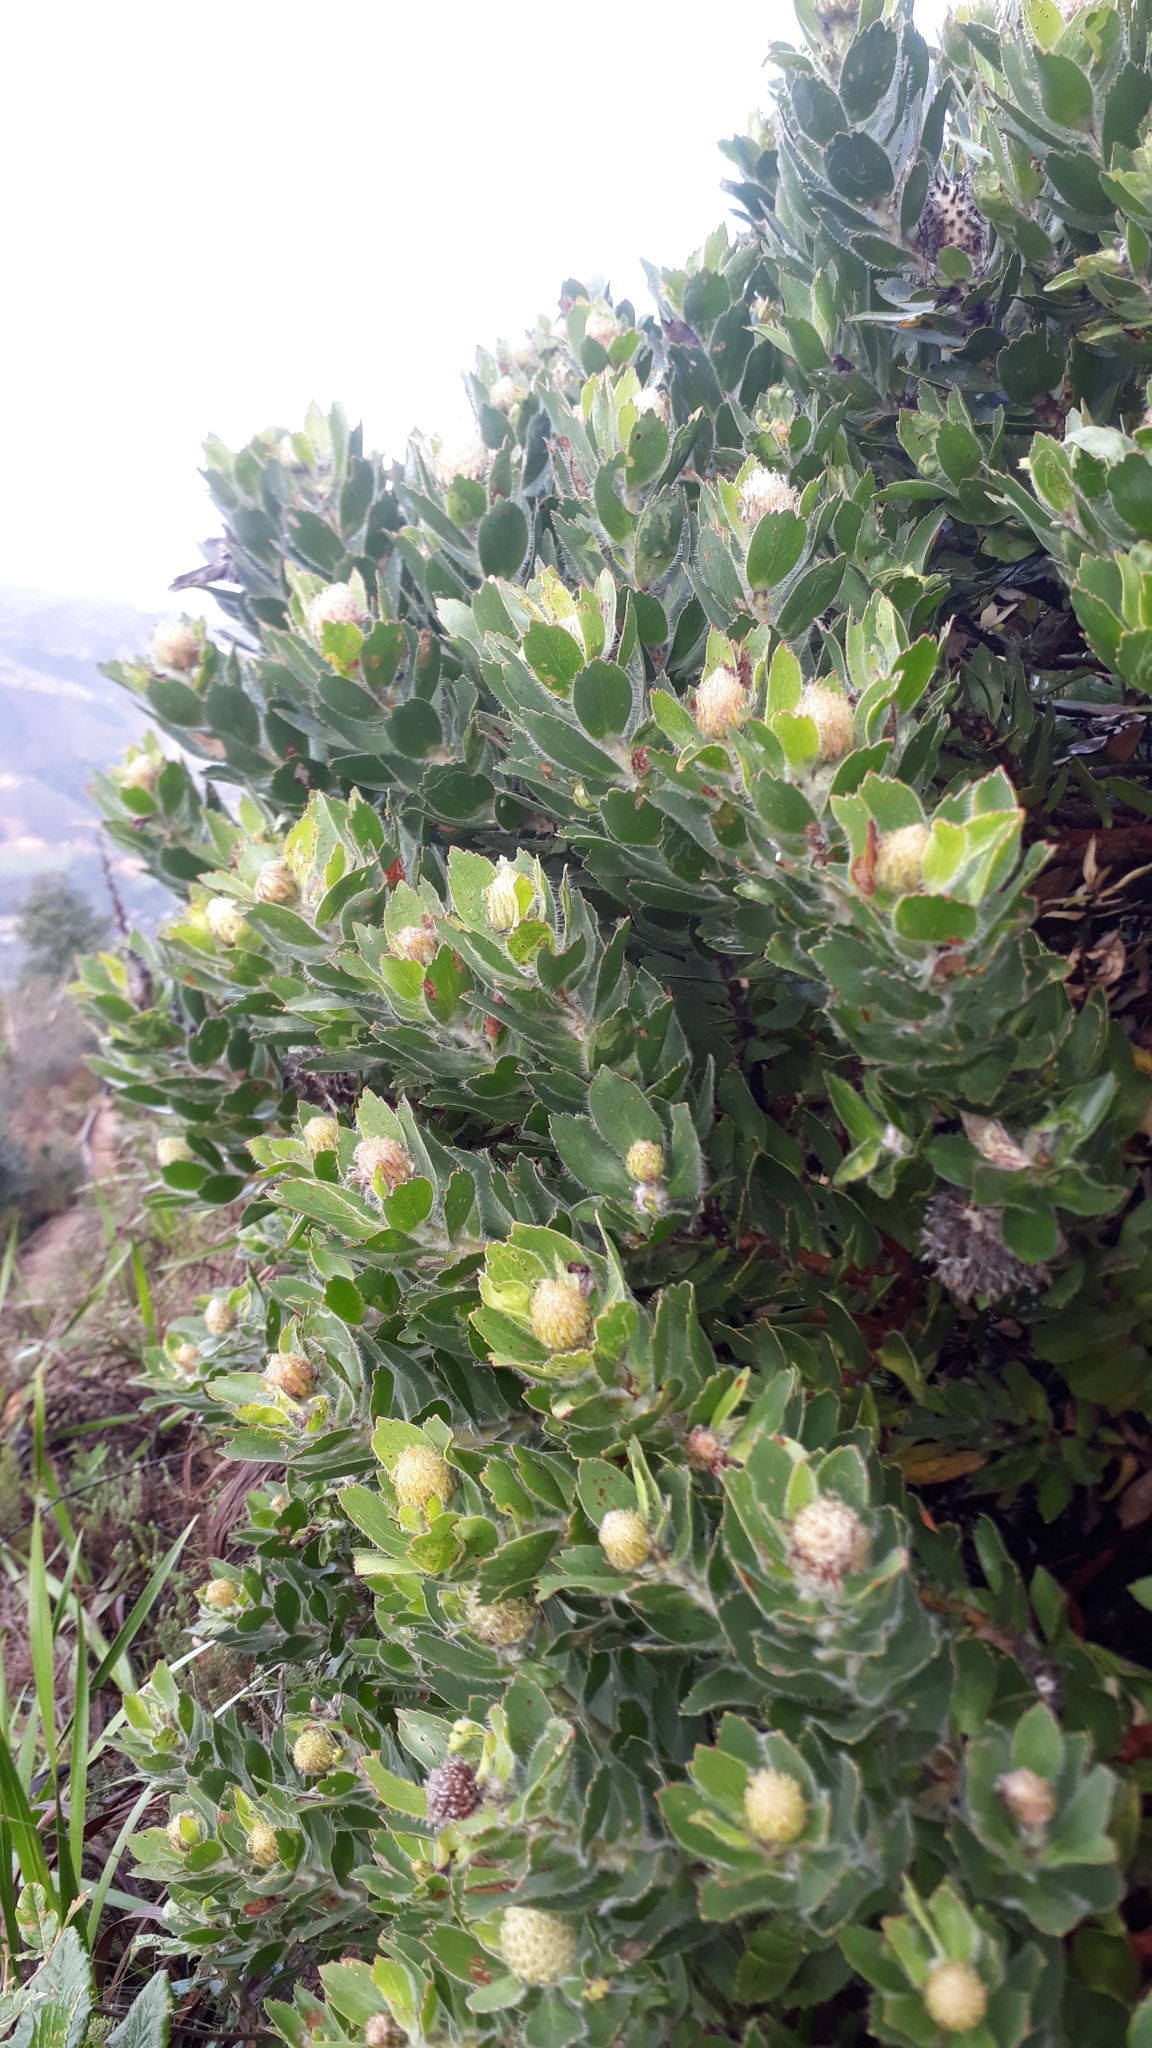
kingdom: Plantae
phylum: Tracheophyta
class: Magnoliopsida
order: Proteales
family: Proteaceae
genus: Leucospermum
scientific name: Leucospermum conocarpodendron
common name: Tree pincushion
